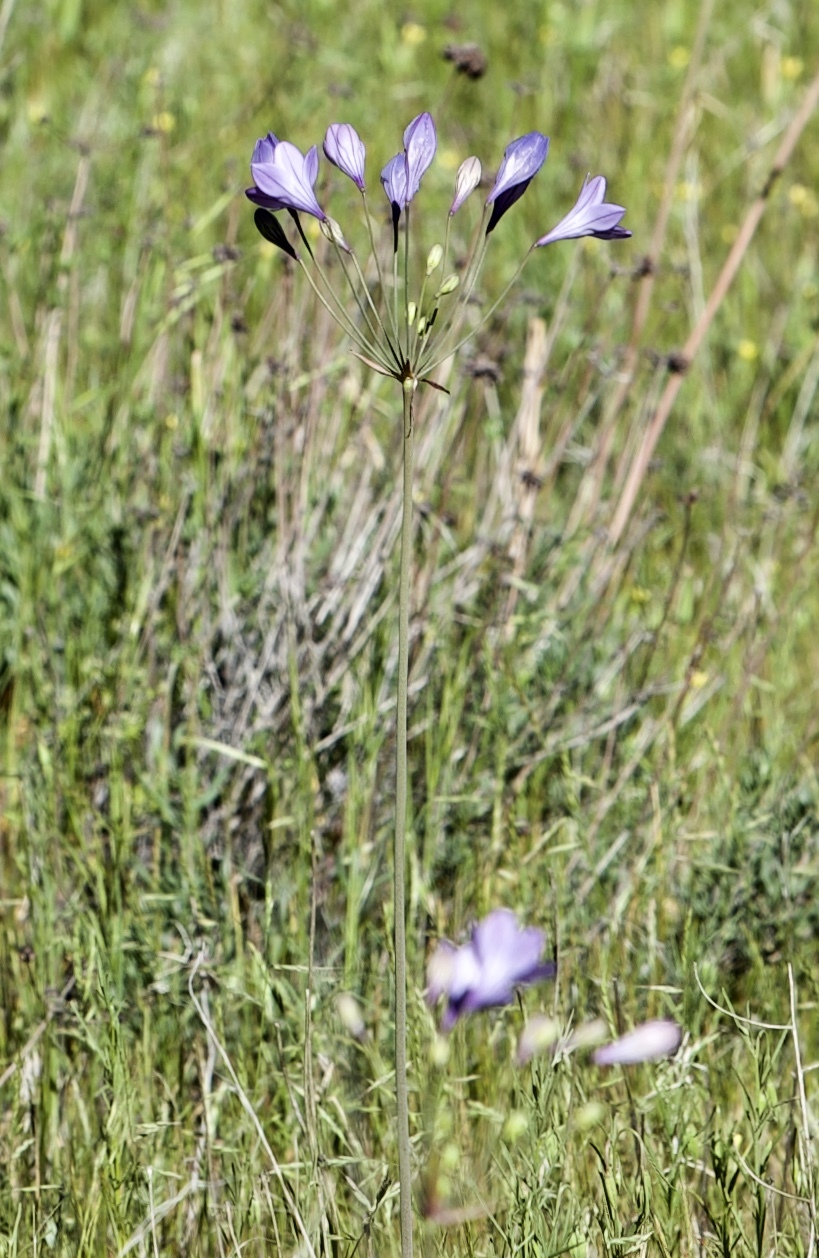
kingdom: Plantae
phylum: Tracheophyta
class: Liliopsida
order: Asparagales
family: Asparagaceae
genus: Triteleia
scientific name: Triteleia laxa
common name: Triplet-lily
